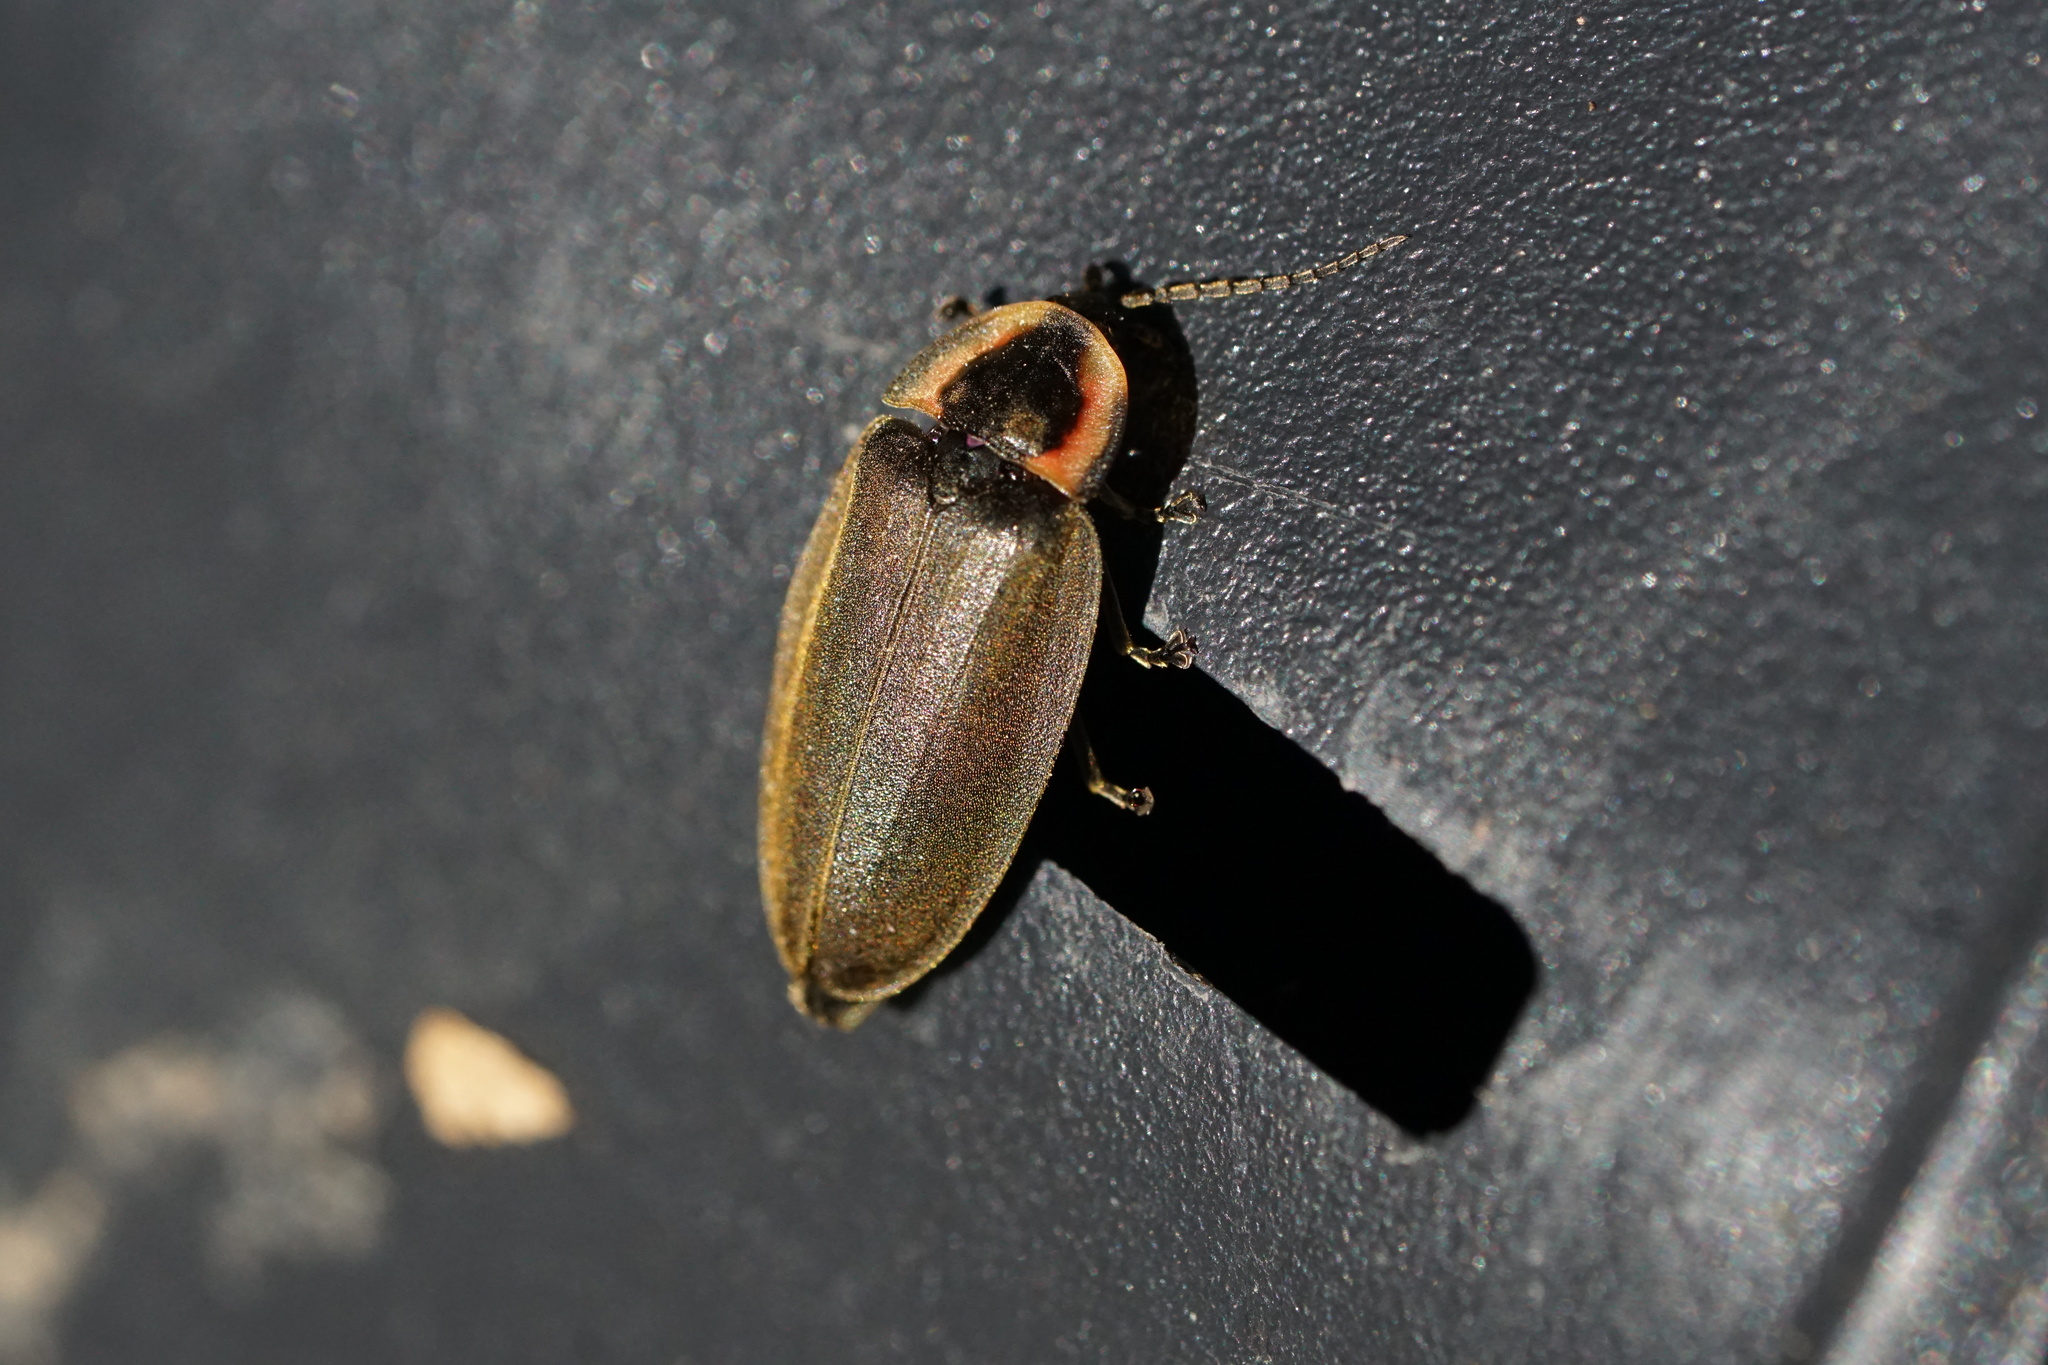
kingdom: Animalia
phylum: Arthropoda
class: Insecta
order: Coleoptera
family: Lampyridae
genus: Photinus
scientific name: Photinus corrusca
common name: Winter firefly
